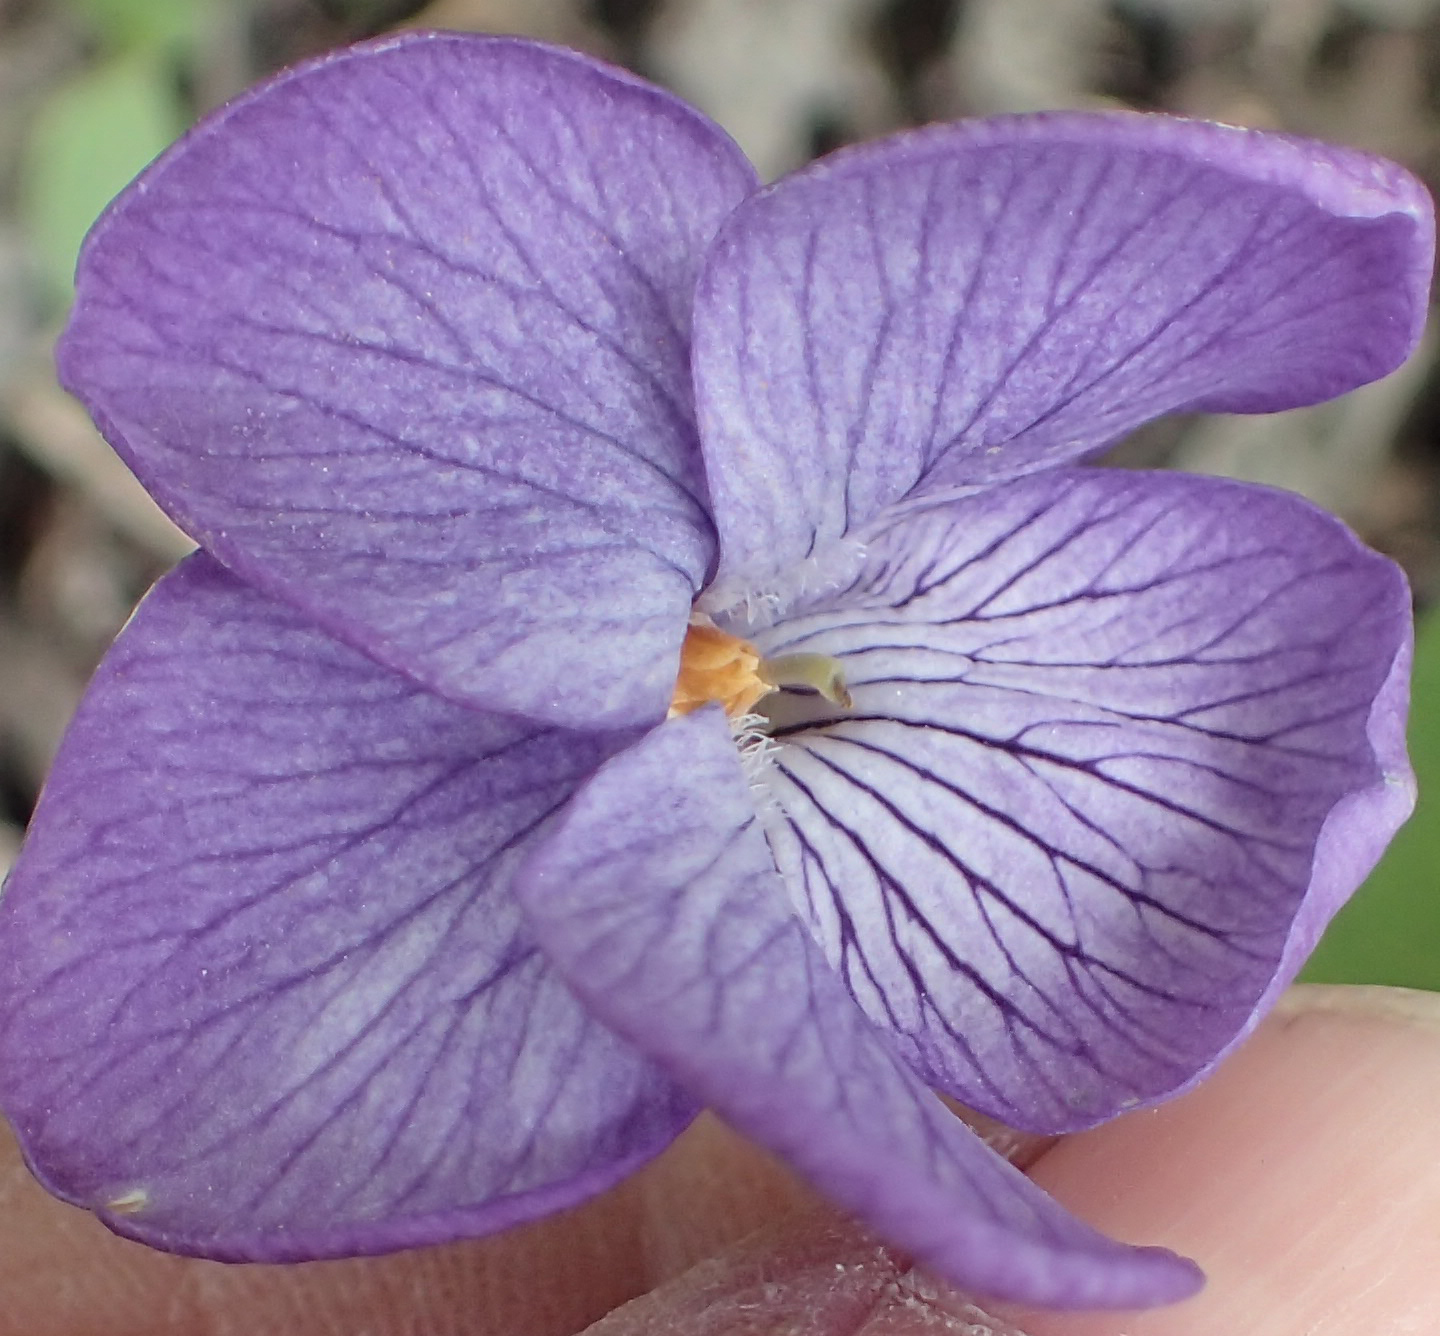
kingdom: Plantae
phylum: Tracheophyta
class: Magnoliopsida
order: Malpighiales
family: Violaceae
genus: Viola
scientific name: Viola langsdorffii
